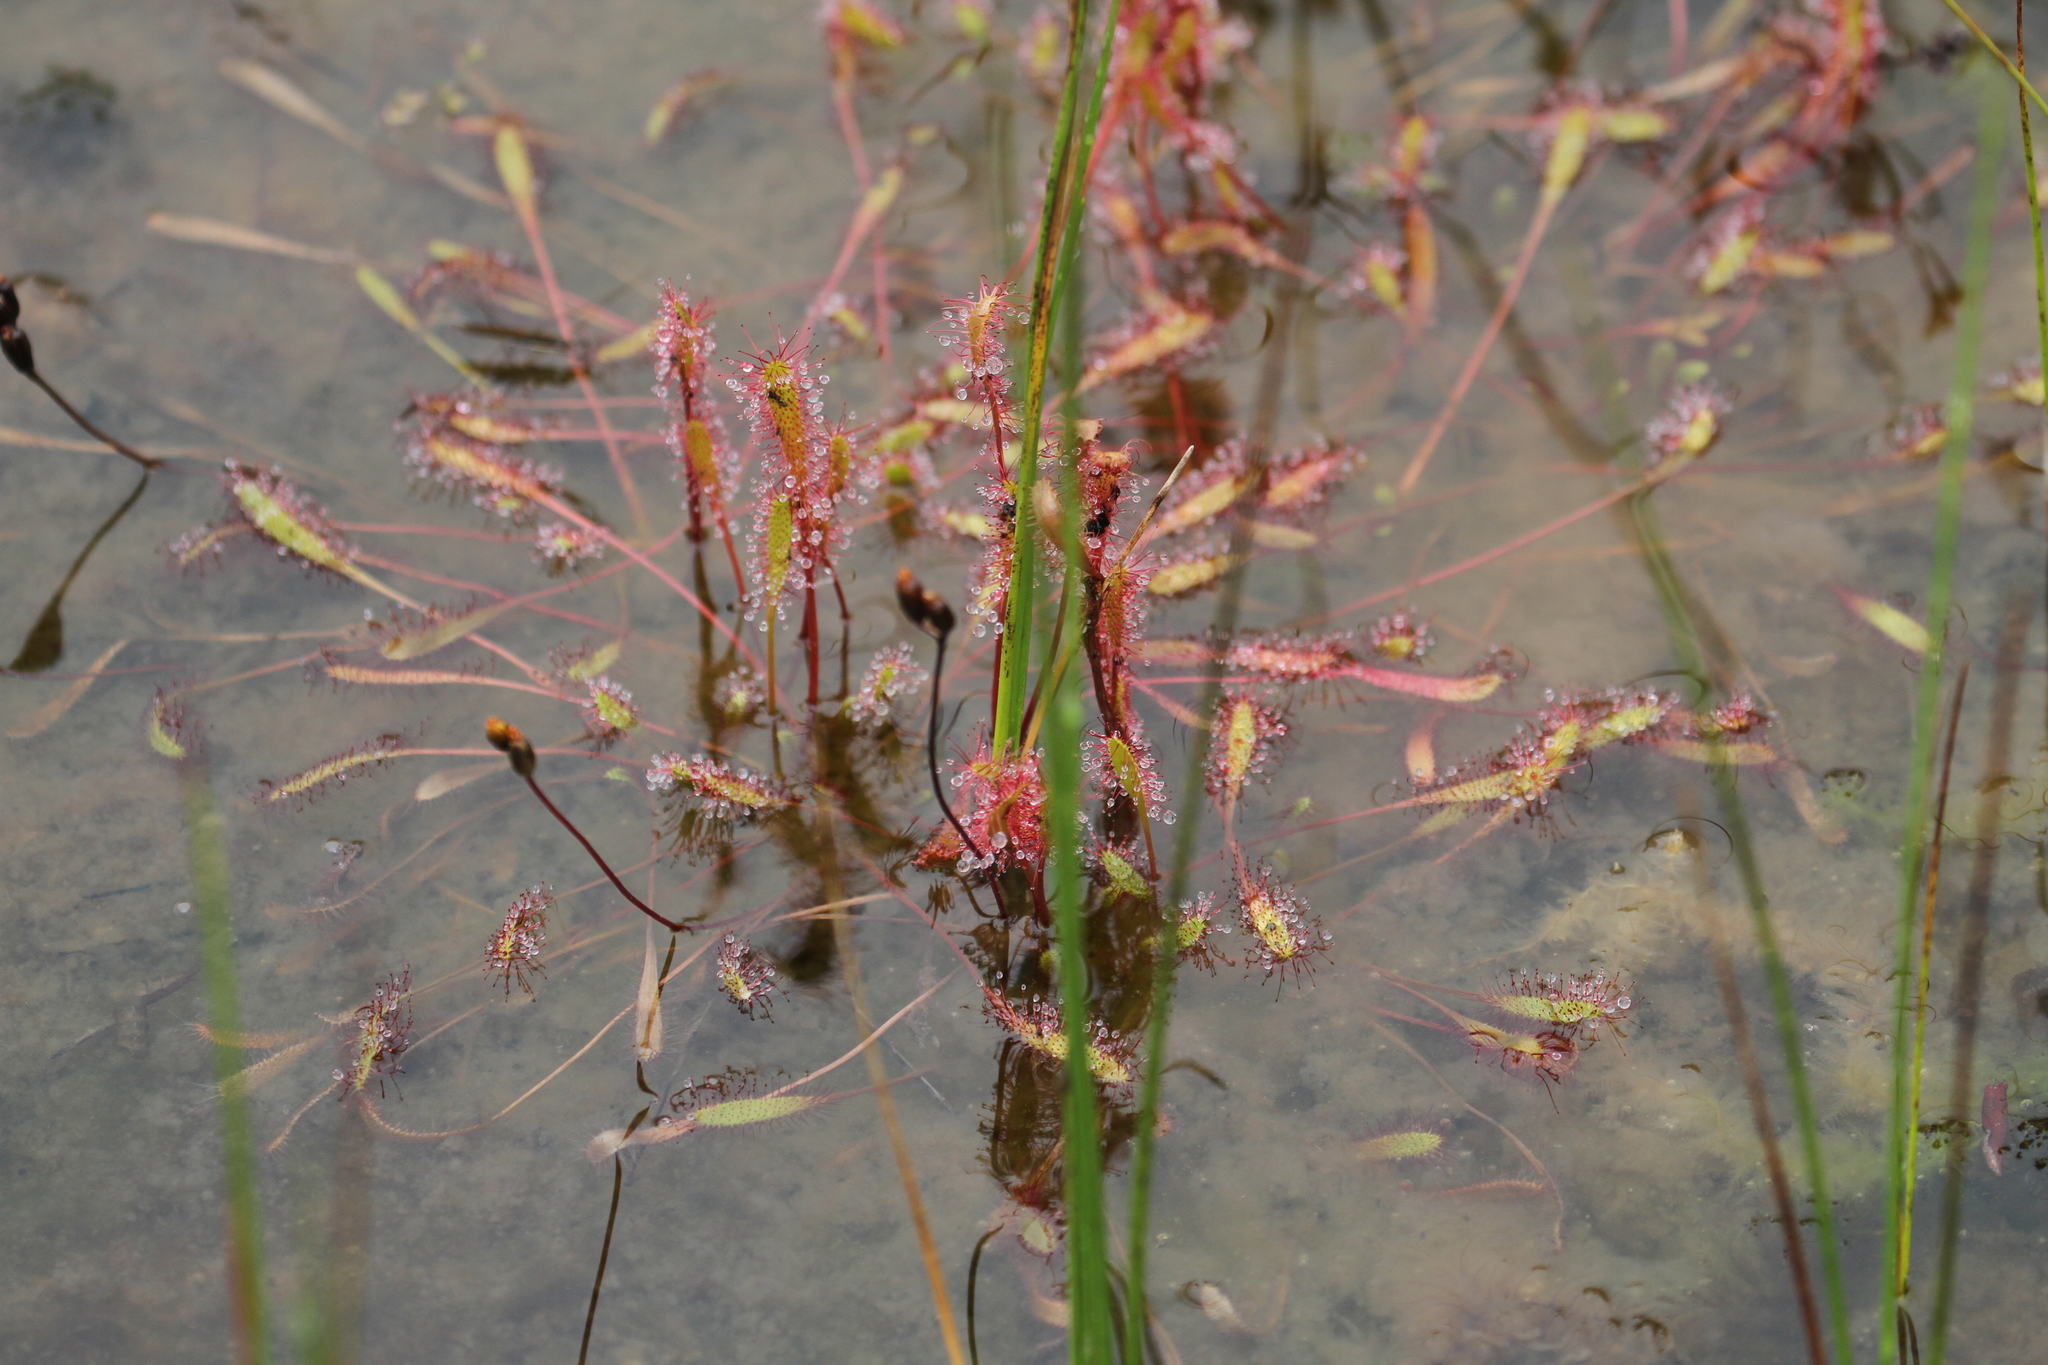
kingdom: Plantae
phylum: Tracheophyta
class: Magnoliopsida
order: Caryophyllales
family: Droseraceae
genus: Drosera
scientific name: Drosera anglica
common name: Great sundew
